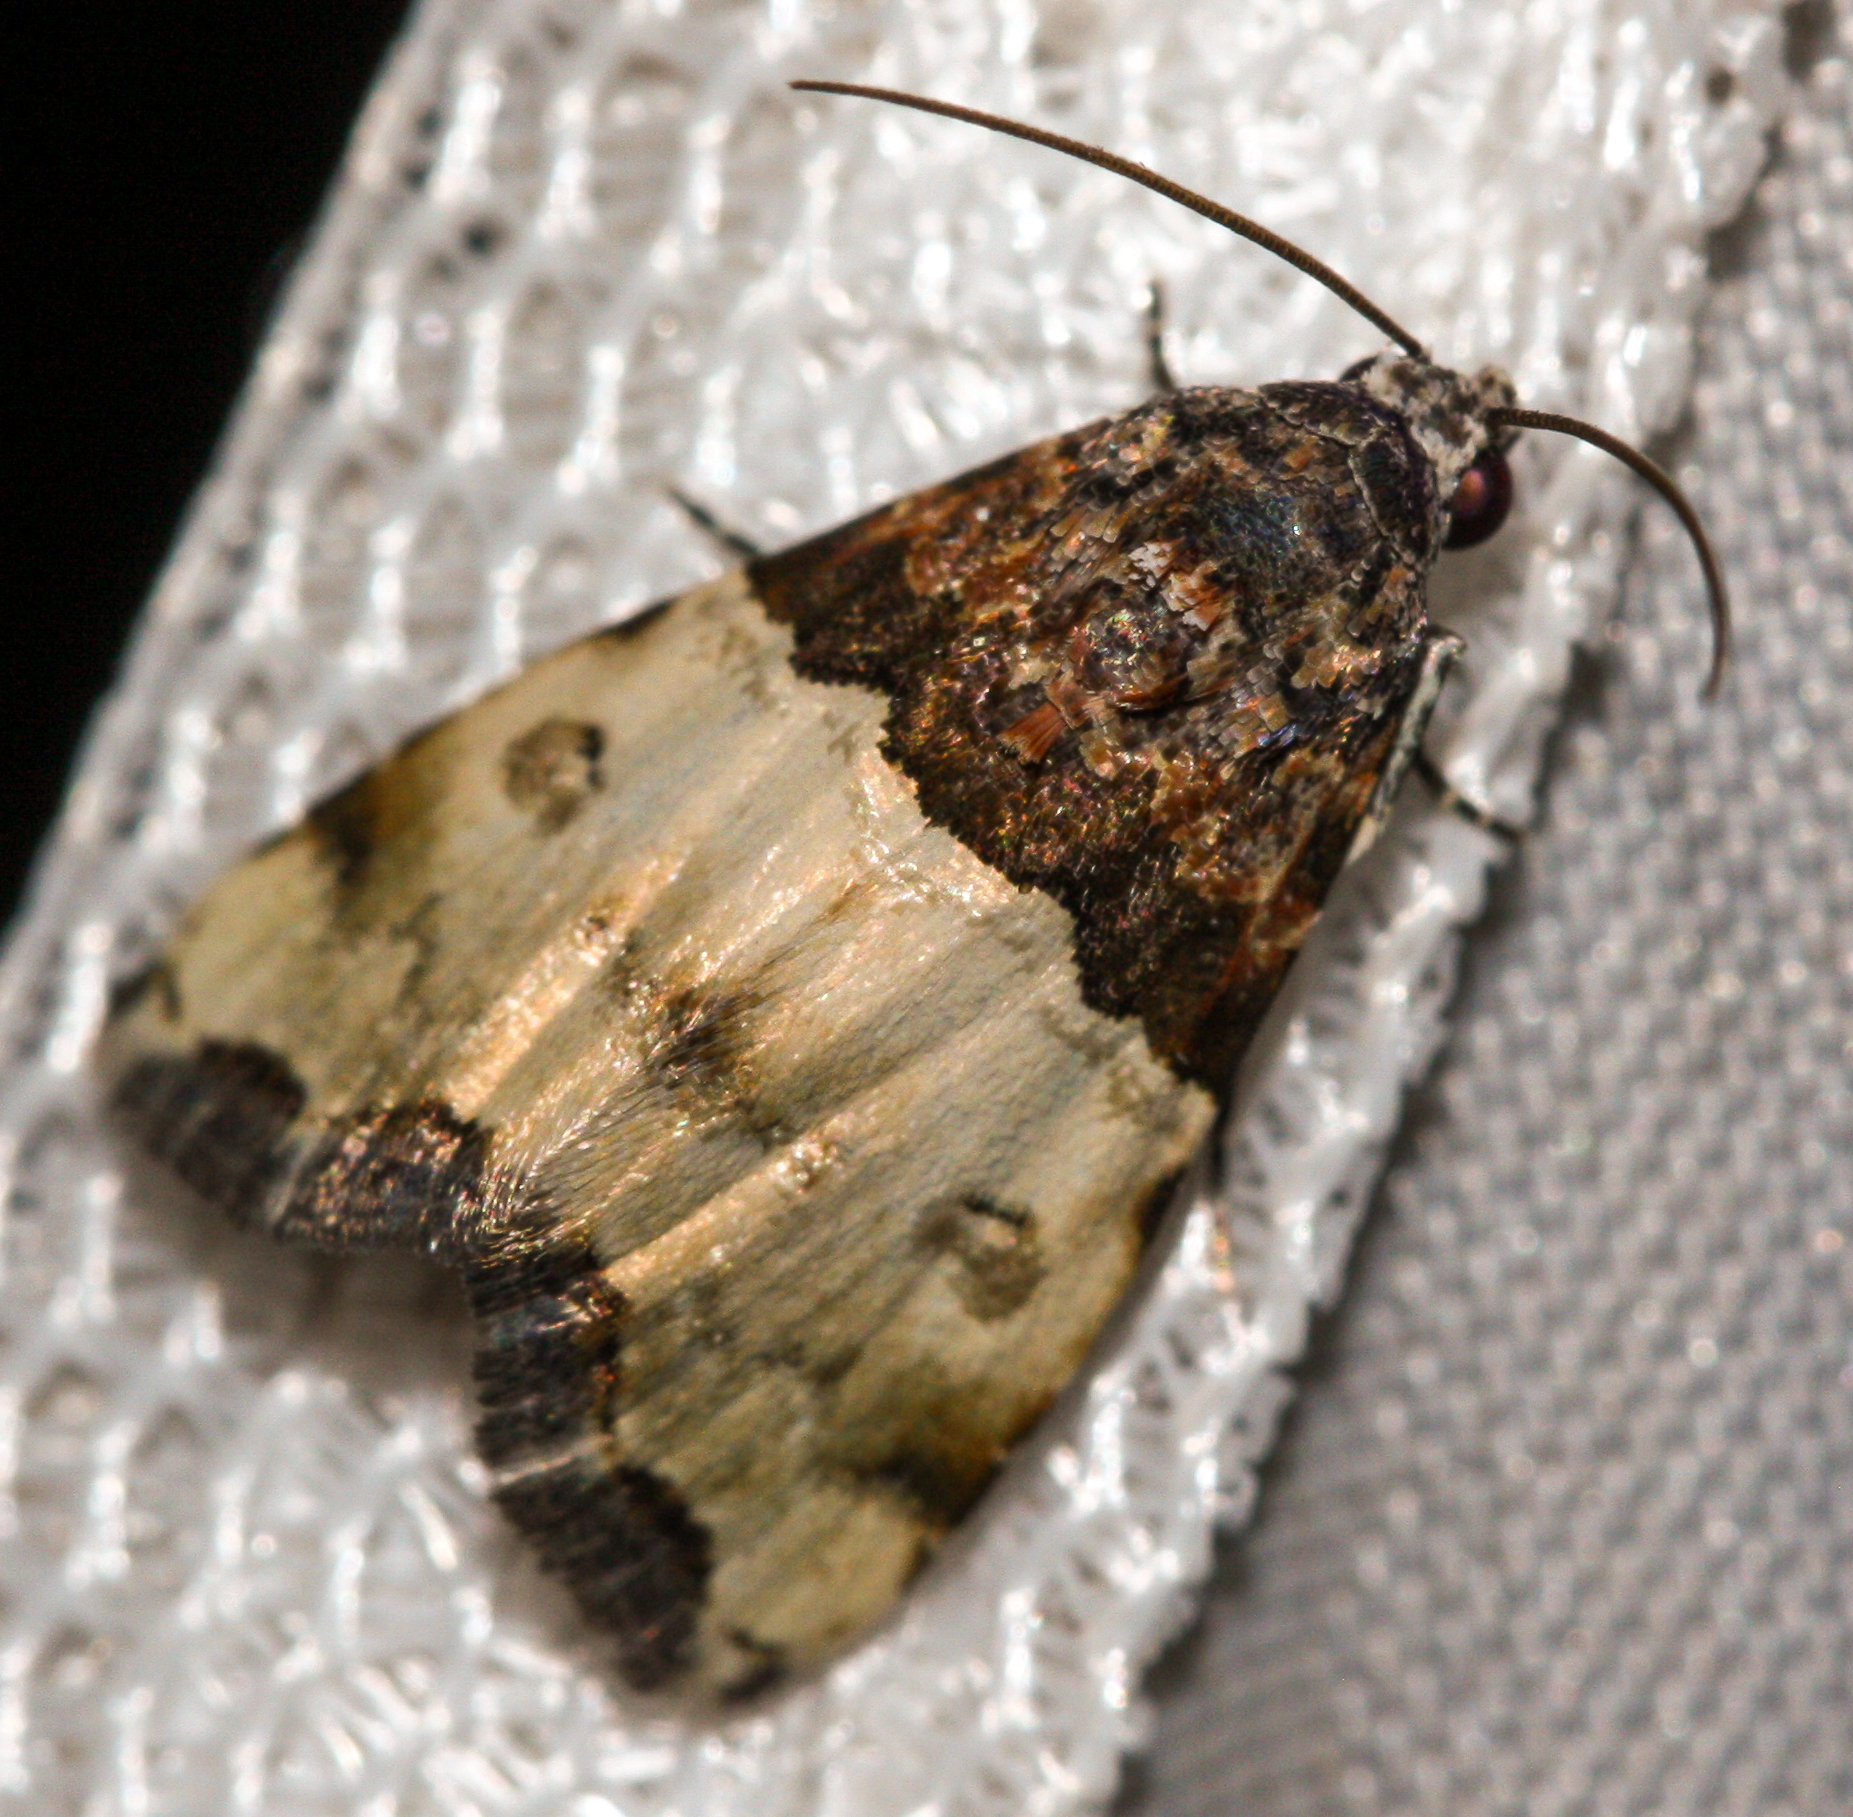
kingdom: Animalia
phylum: Arthropoda
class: Insecta
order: Lepidoptera
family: Noctuidae
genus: Cobubatha
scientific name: Cobubatha dividua
